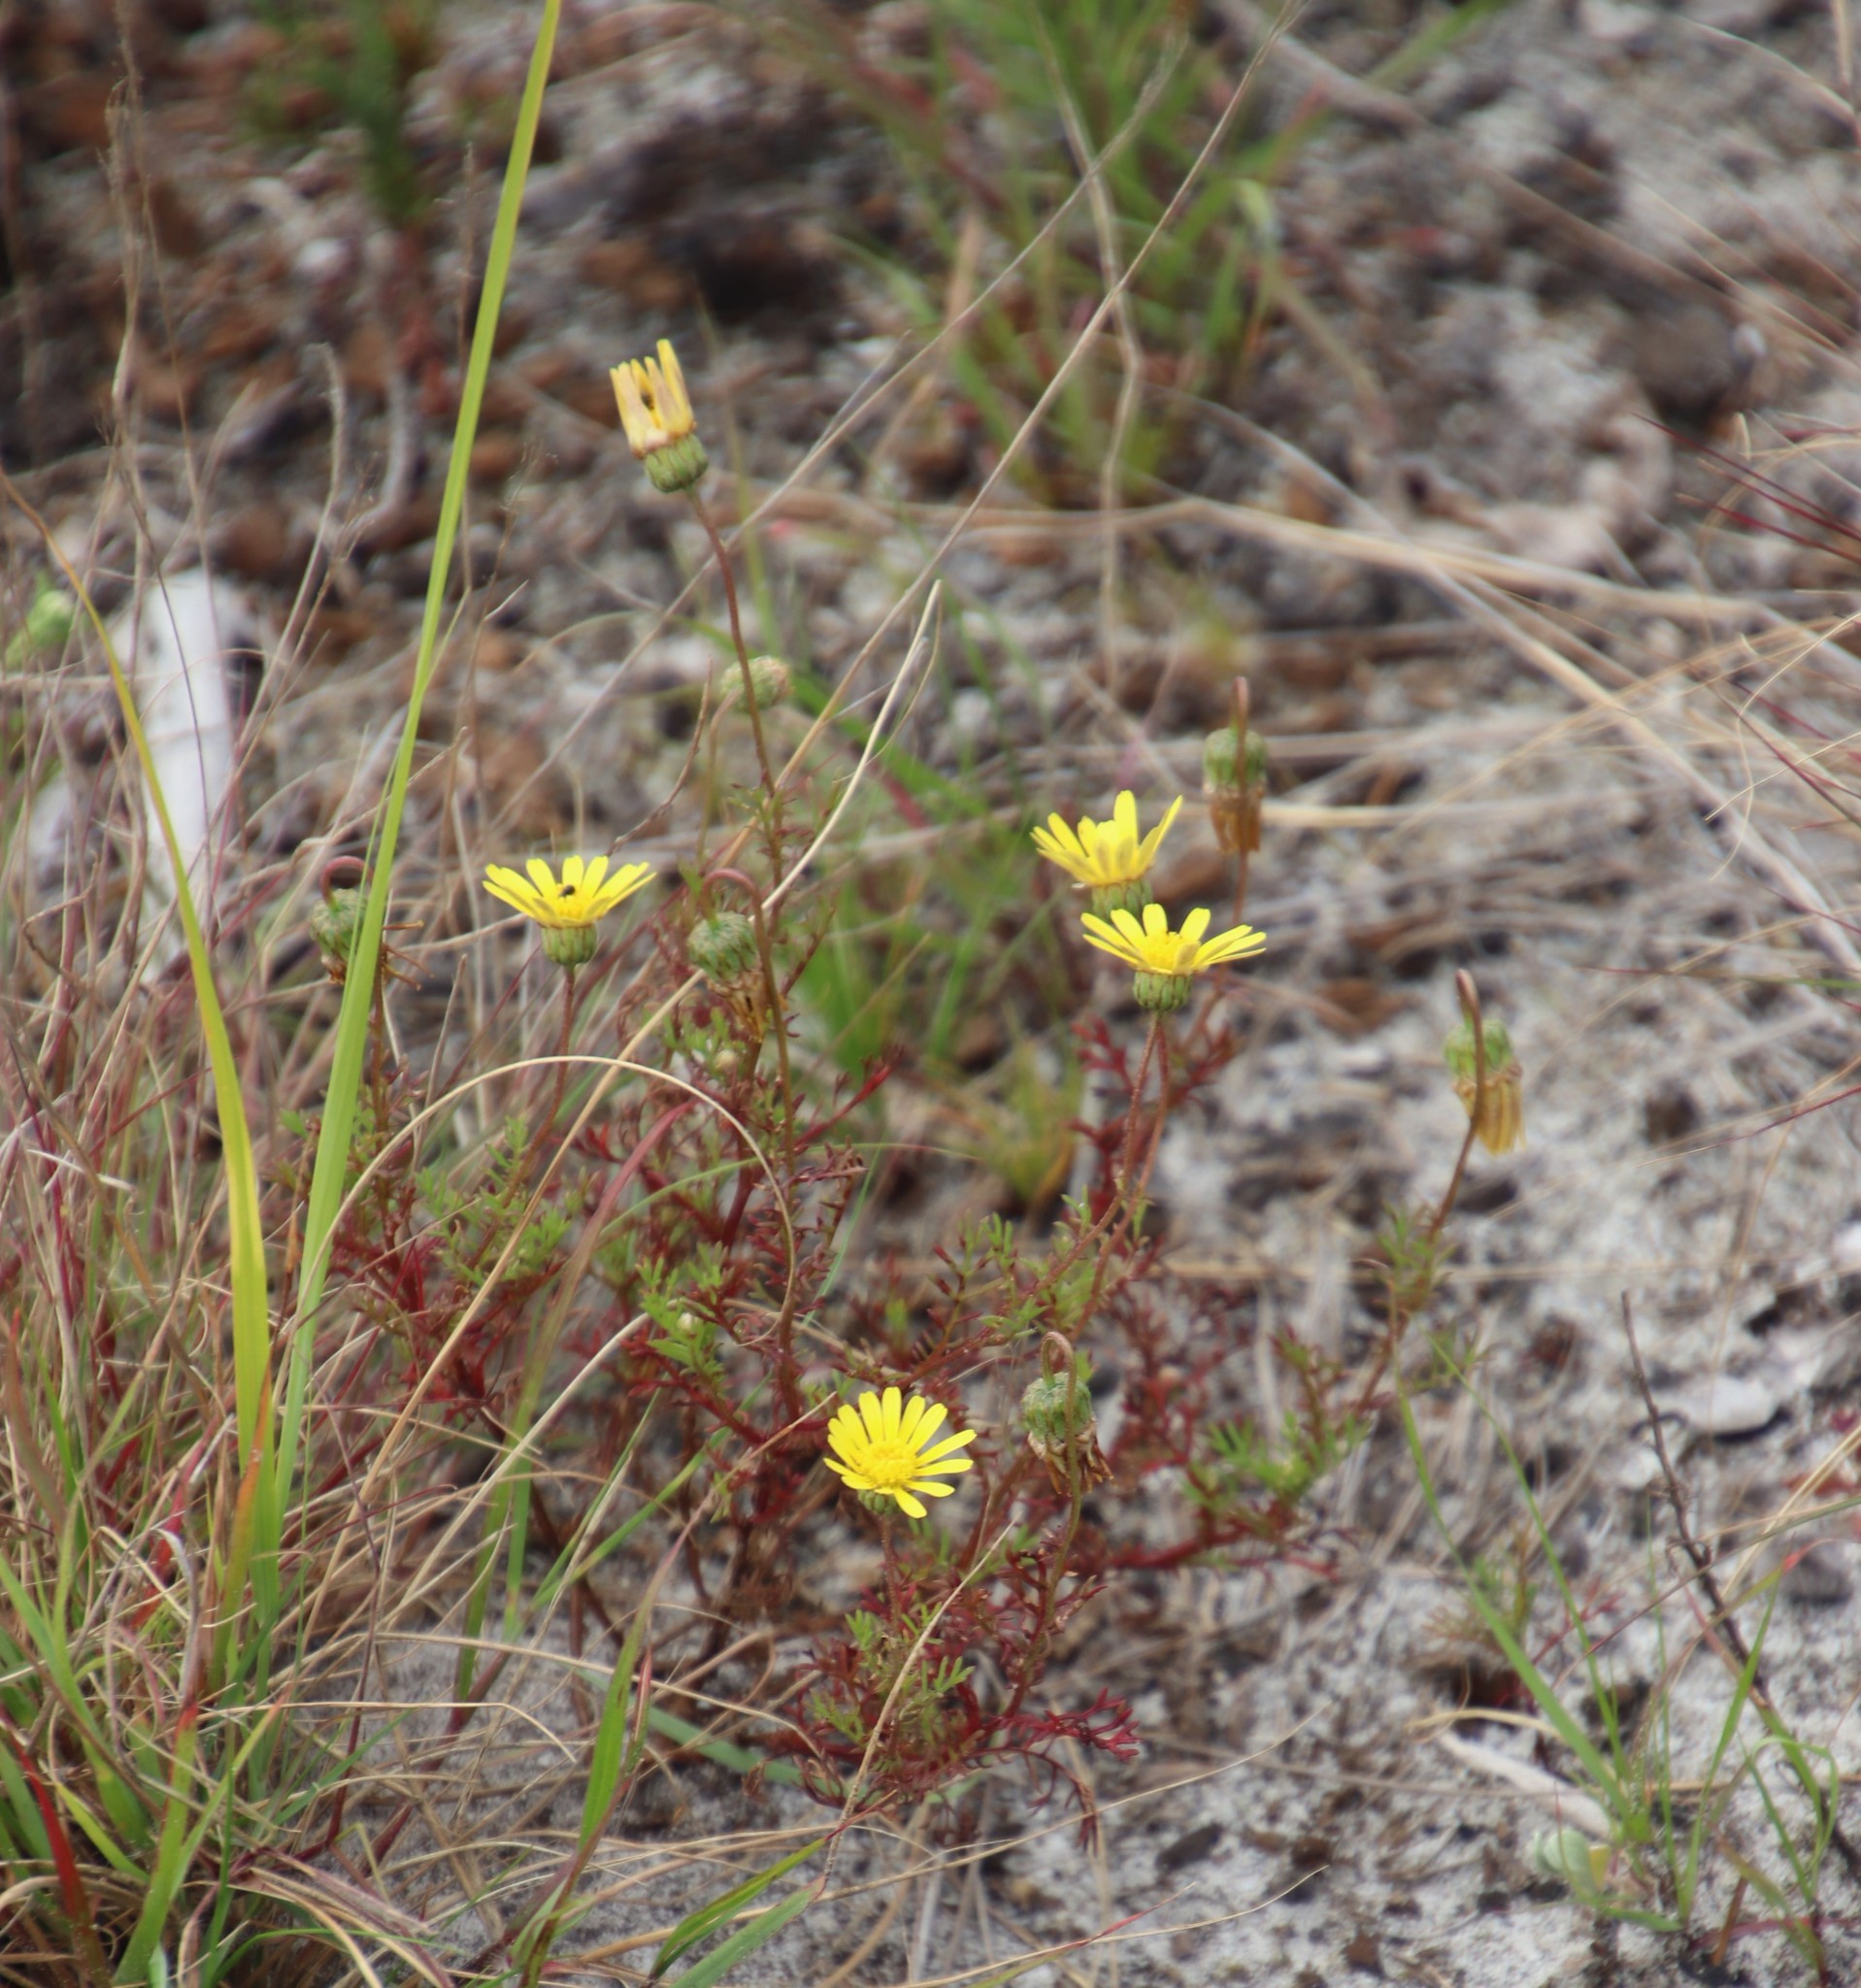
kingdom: Plantae
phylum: Tracheophyta
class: Magnoliopsida
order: Asterales
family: Asteraceae
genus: Ursinia
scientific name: Ursinia anthemoides
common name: Ursinia
